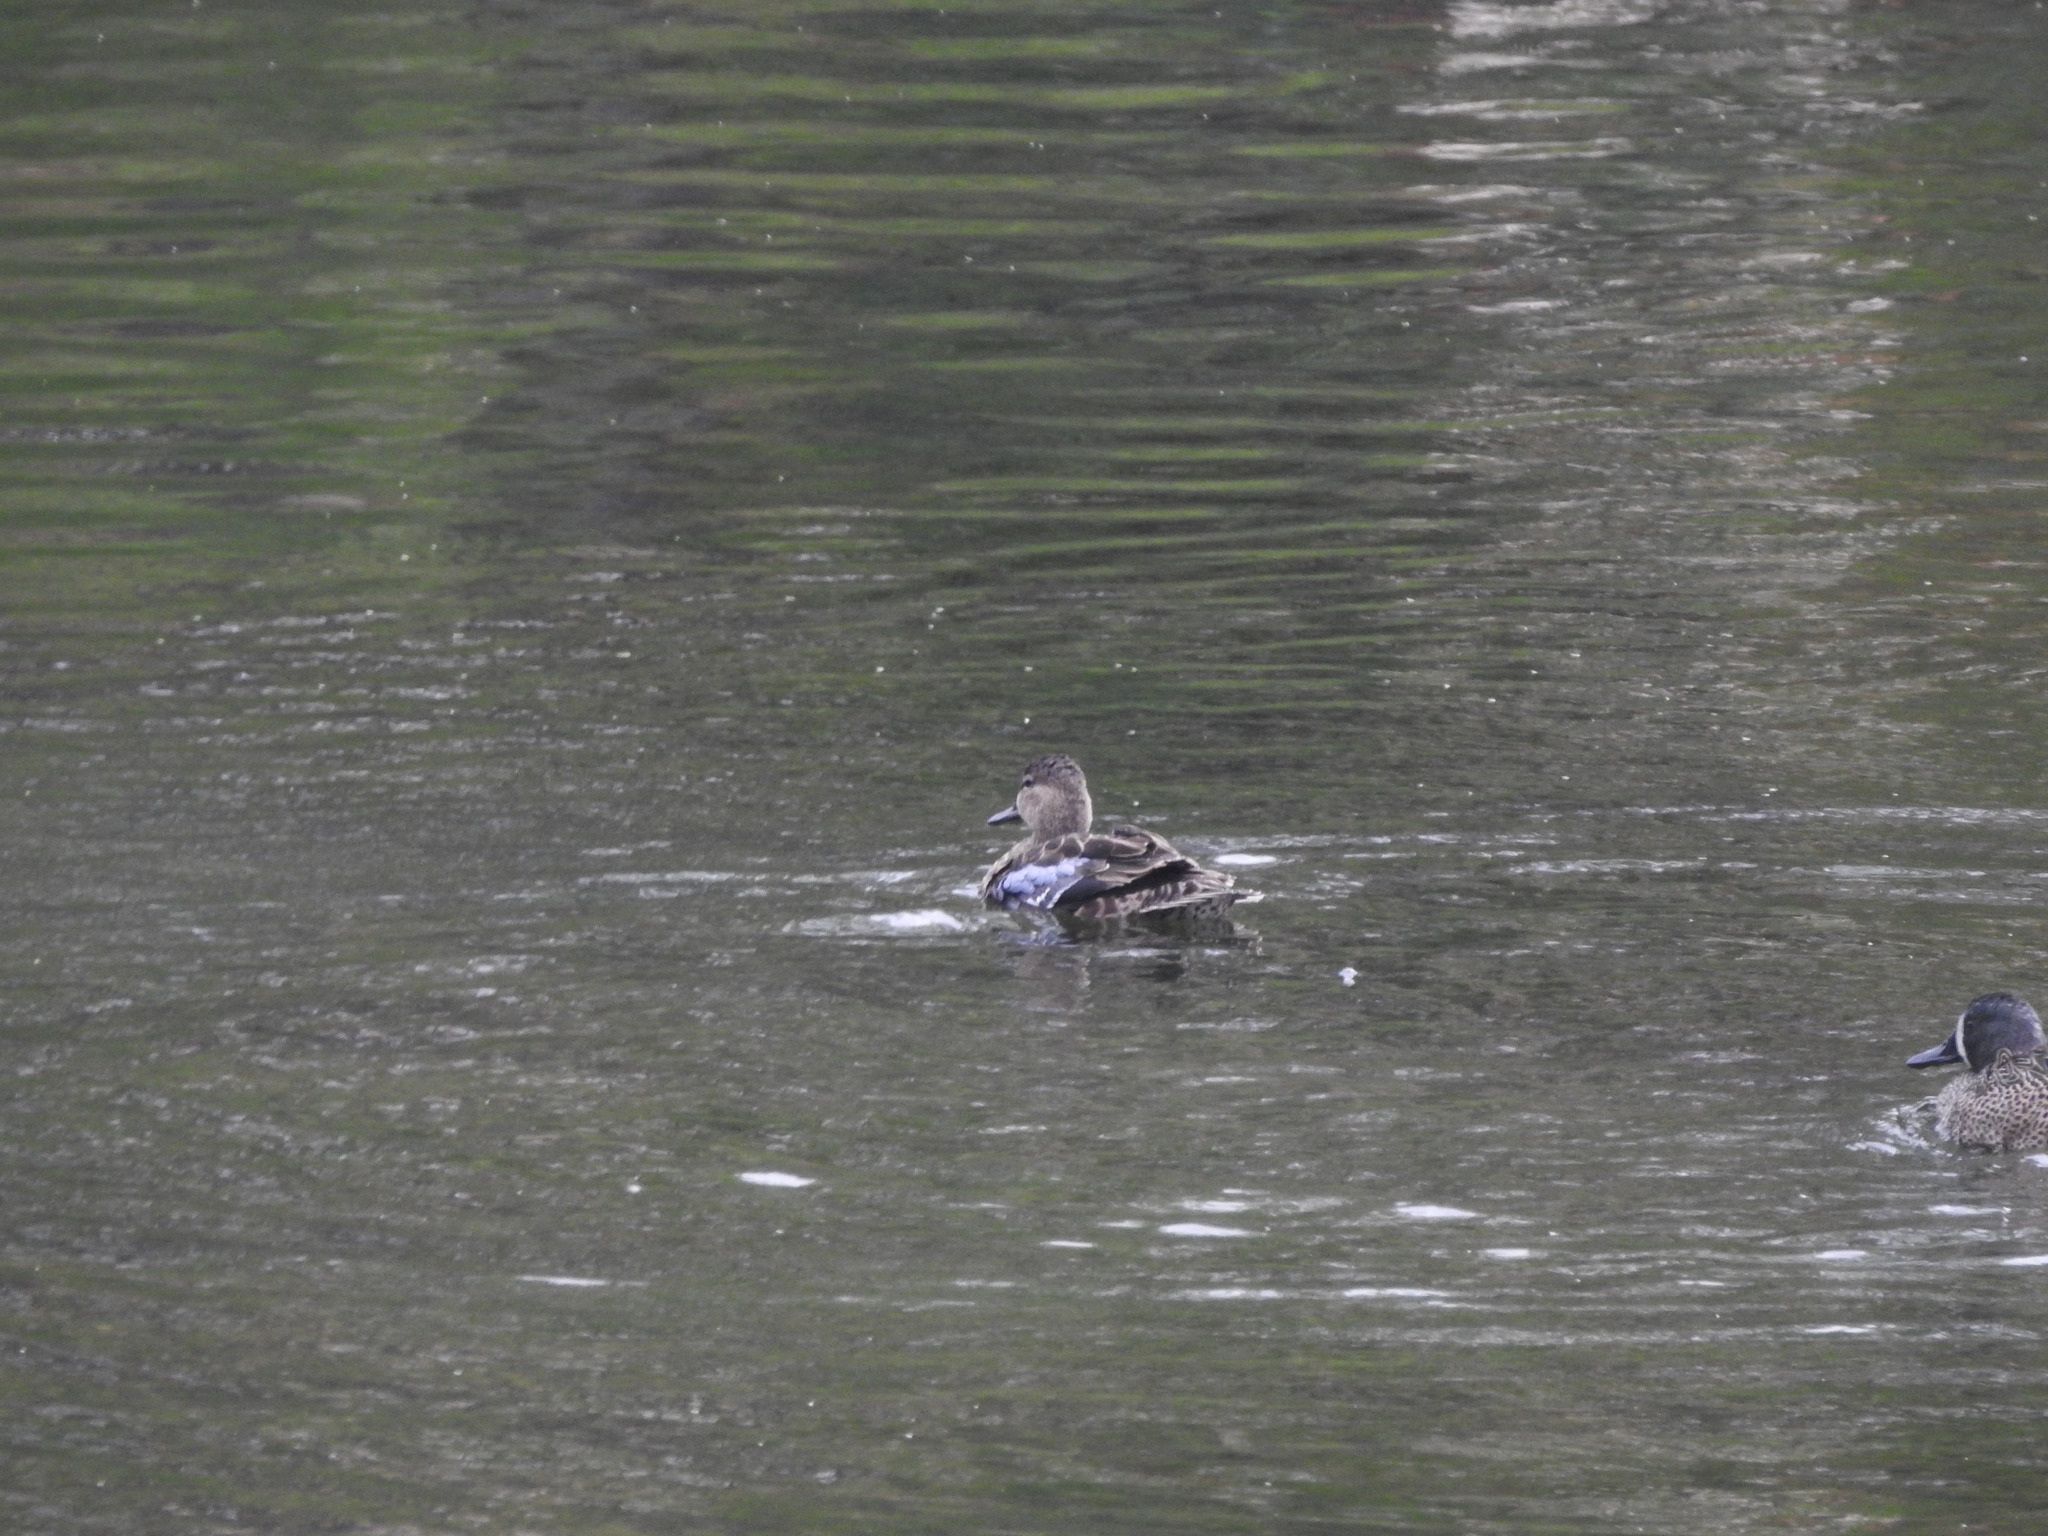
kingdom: Animalia
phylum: Chordata
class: Aves
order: Anseriformes
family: Anatidae
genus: Spatula
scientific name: Spatula discors
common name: Blue-winged teal
